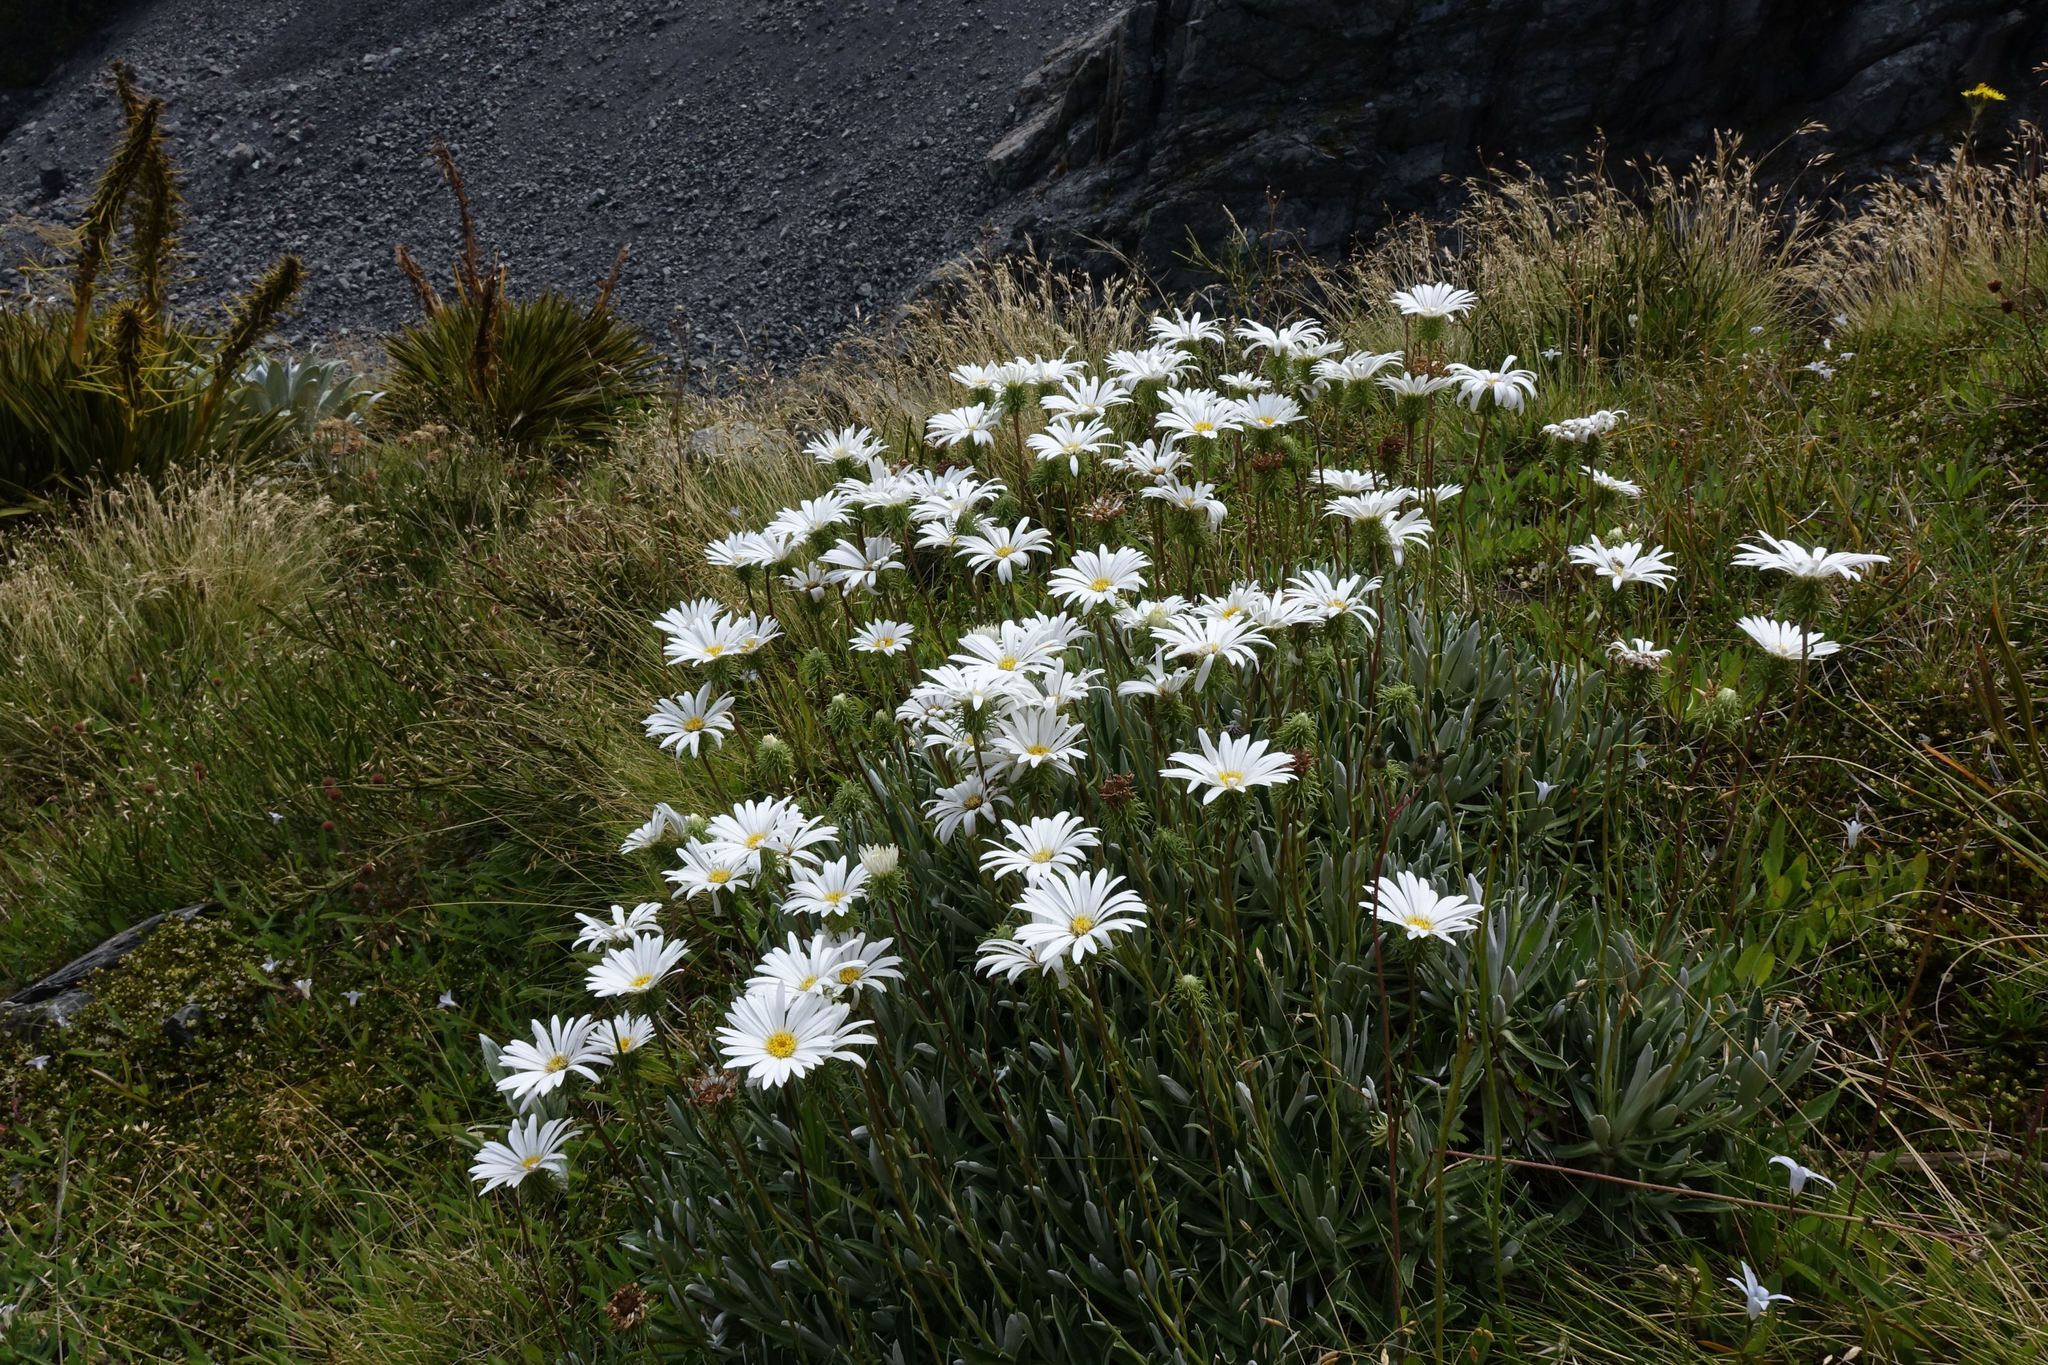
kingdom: Plantae
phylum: Tracheophyta
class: Magnoliopsida
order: Asterales
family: Asteraceae
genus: Celmisia
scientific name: Celmisia angustifolia
